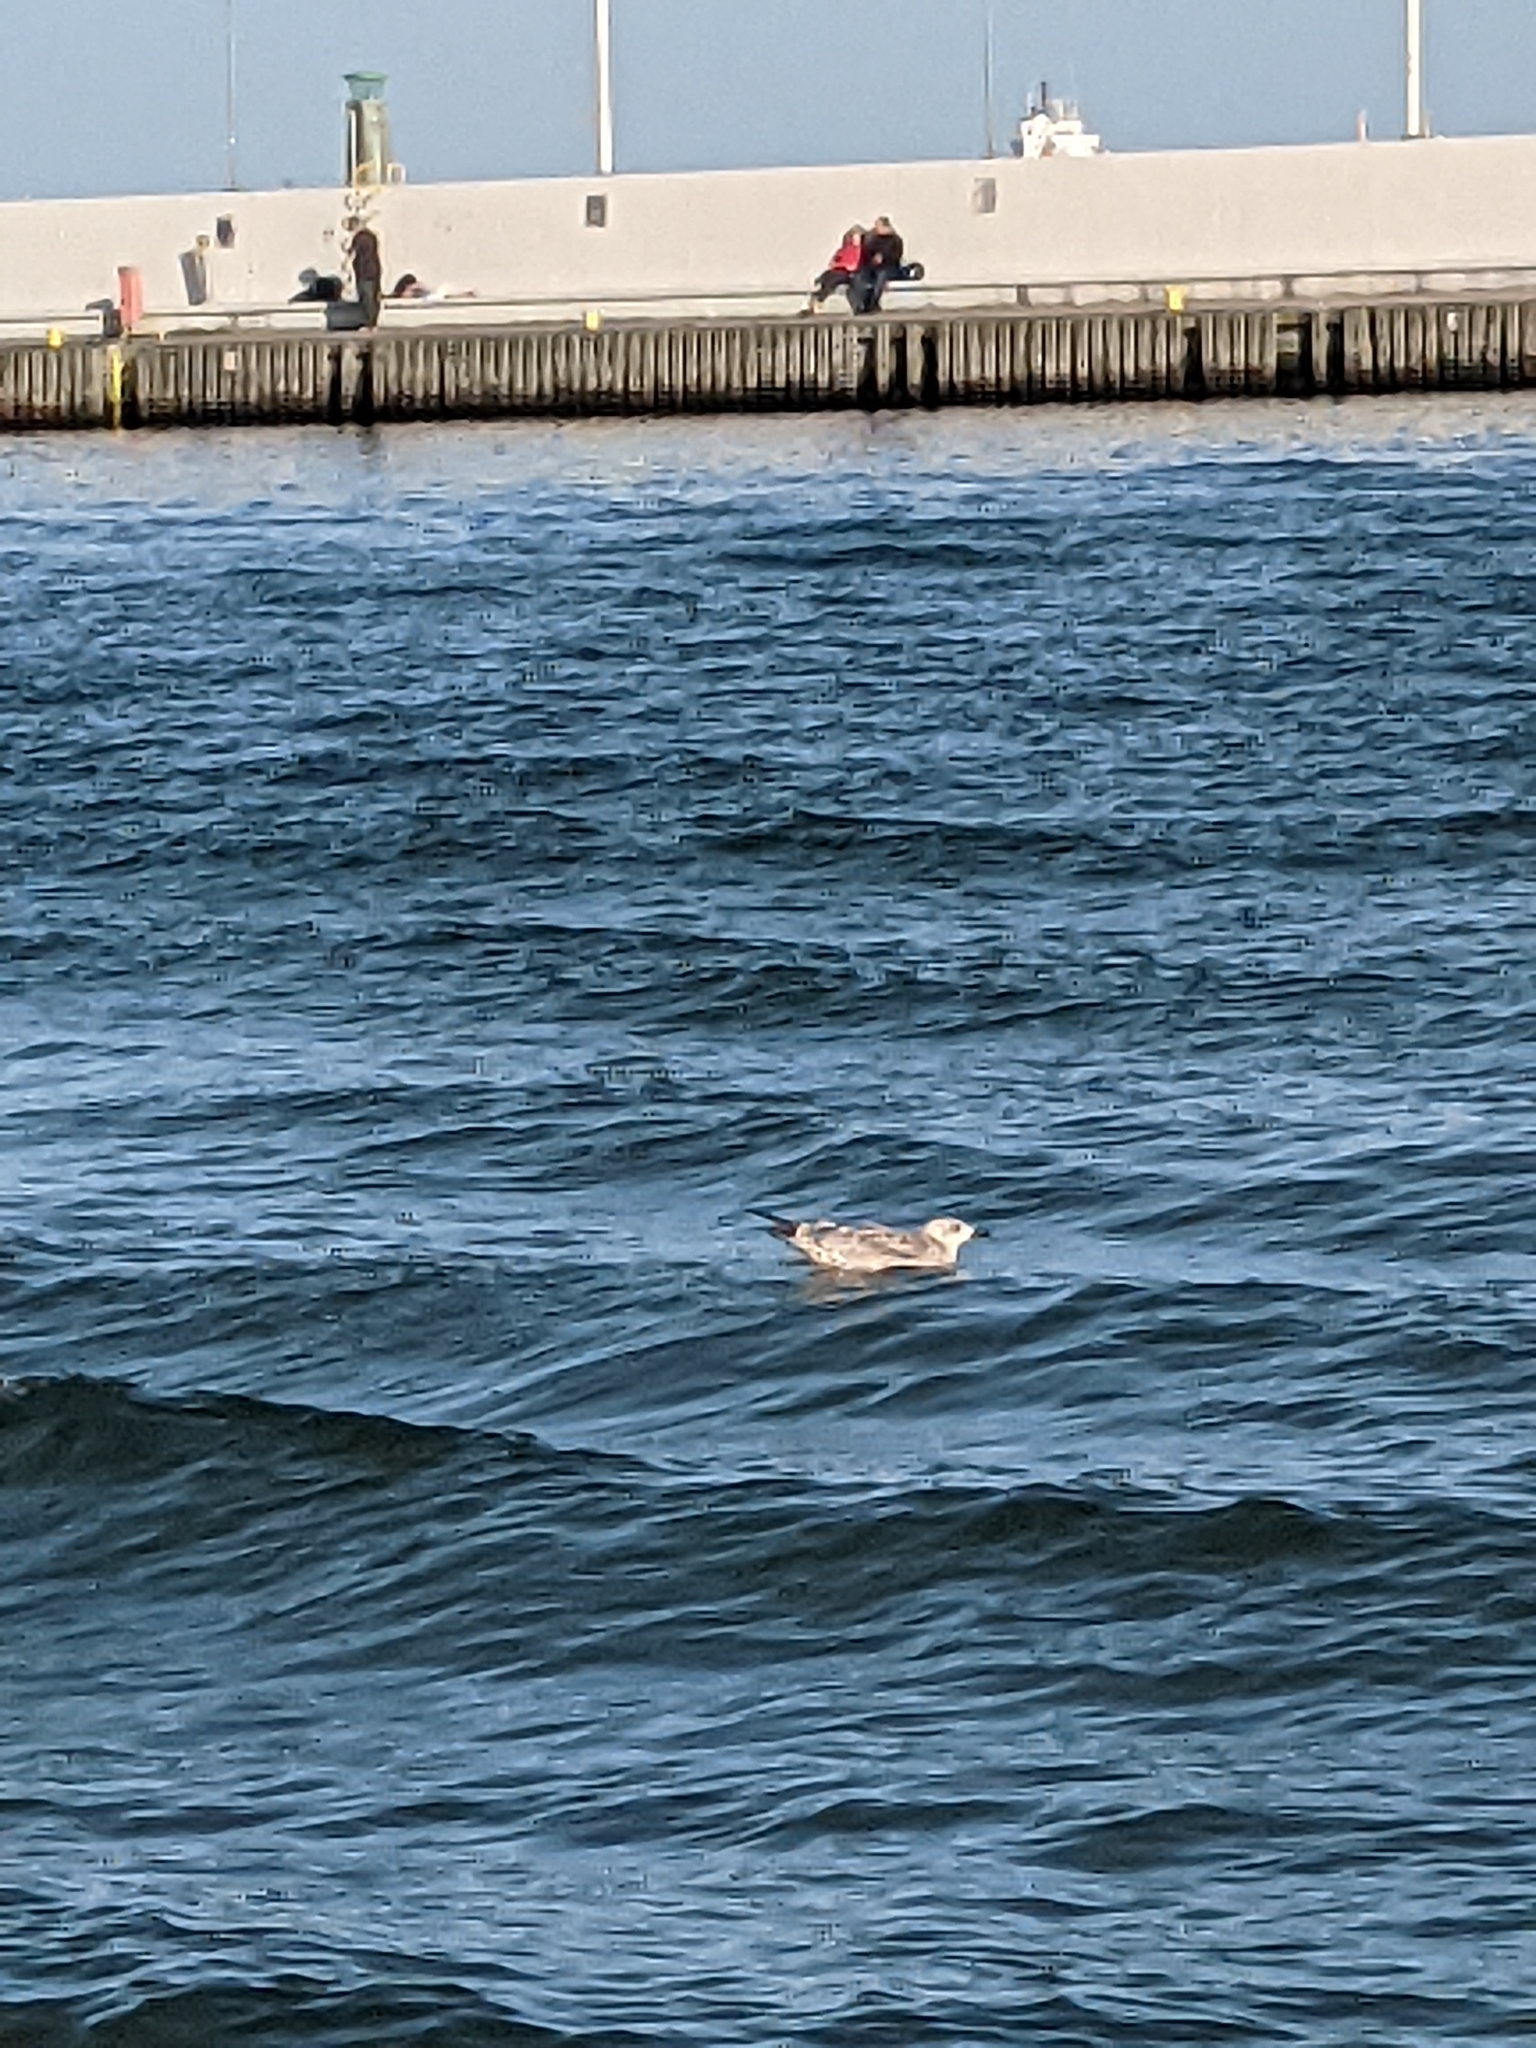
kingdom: Animalia
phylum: Chordata
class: Aves
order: Charadriiformes
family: Laridae
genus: Larus
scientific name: Larus argentatus
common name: Herring gull
